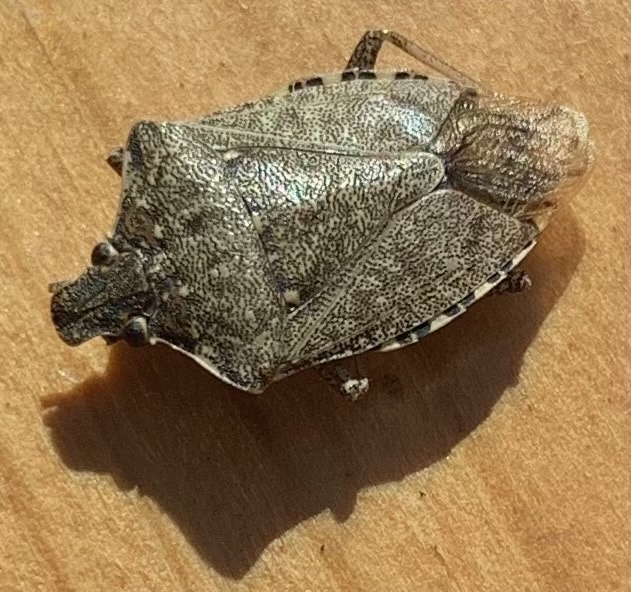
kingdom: Animalia
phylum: Arthropoda
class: Insecta
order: Hemiptera
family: Pentatomidae
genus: Halyomorpha
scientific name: Halyomorpha halys
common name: Brown marmorated stink bug
